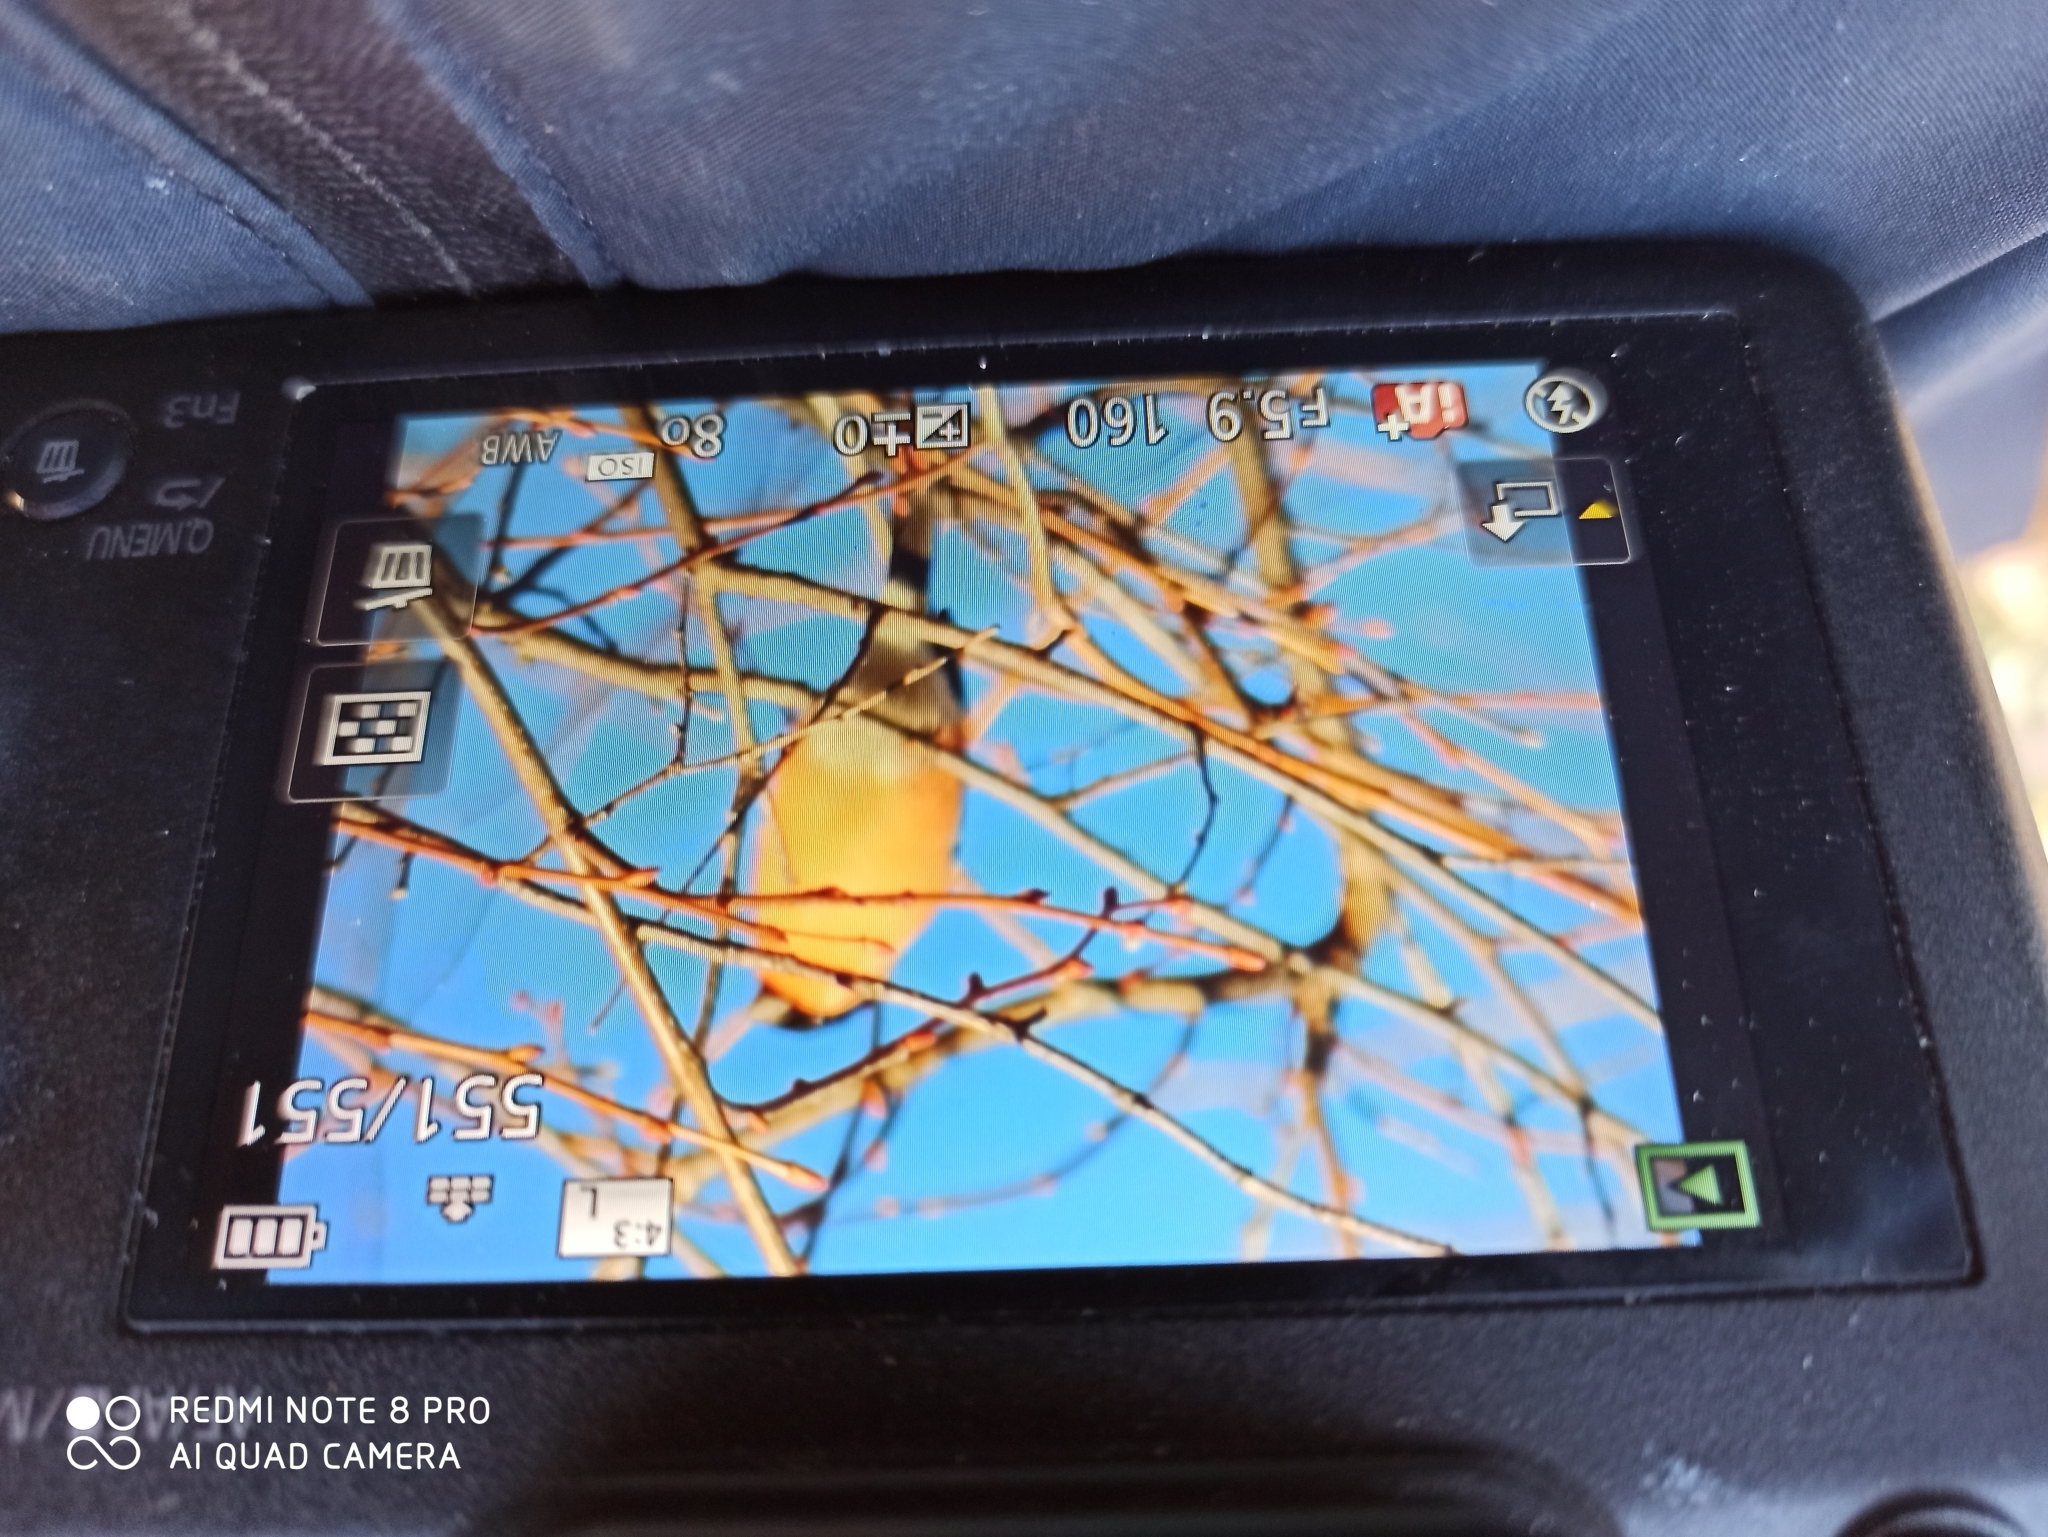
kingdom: Animalia
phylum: Chordata
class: Aves
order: Passeriformes
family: Fringillidae
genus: Pyrrhula
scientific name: Pyrrhula pyrrhula
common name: Eurasian bullfinch
